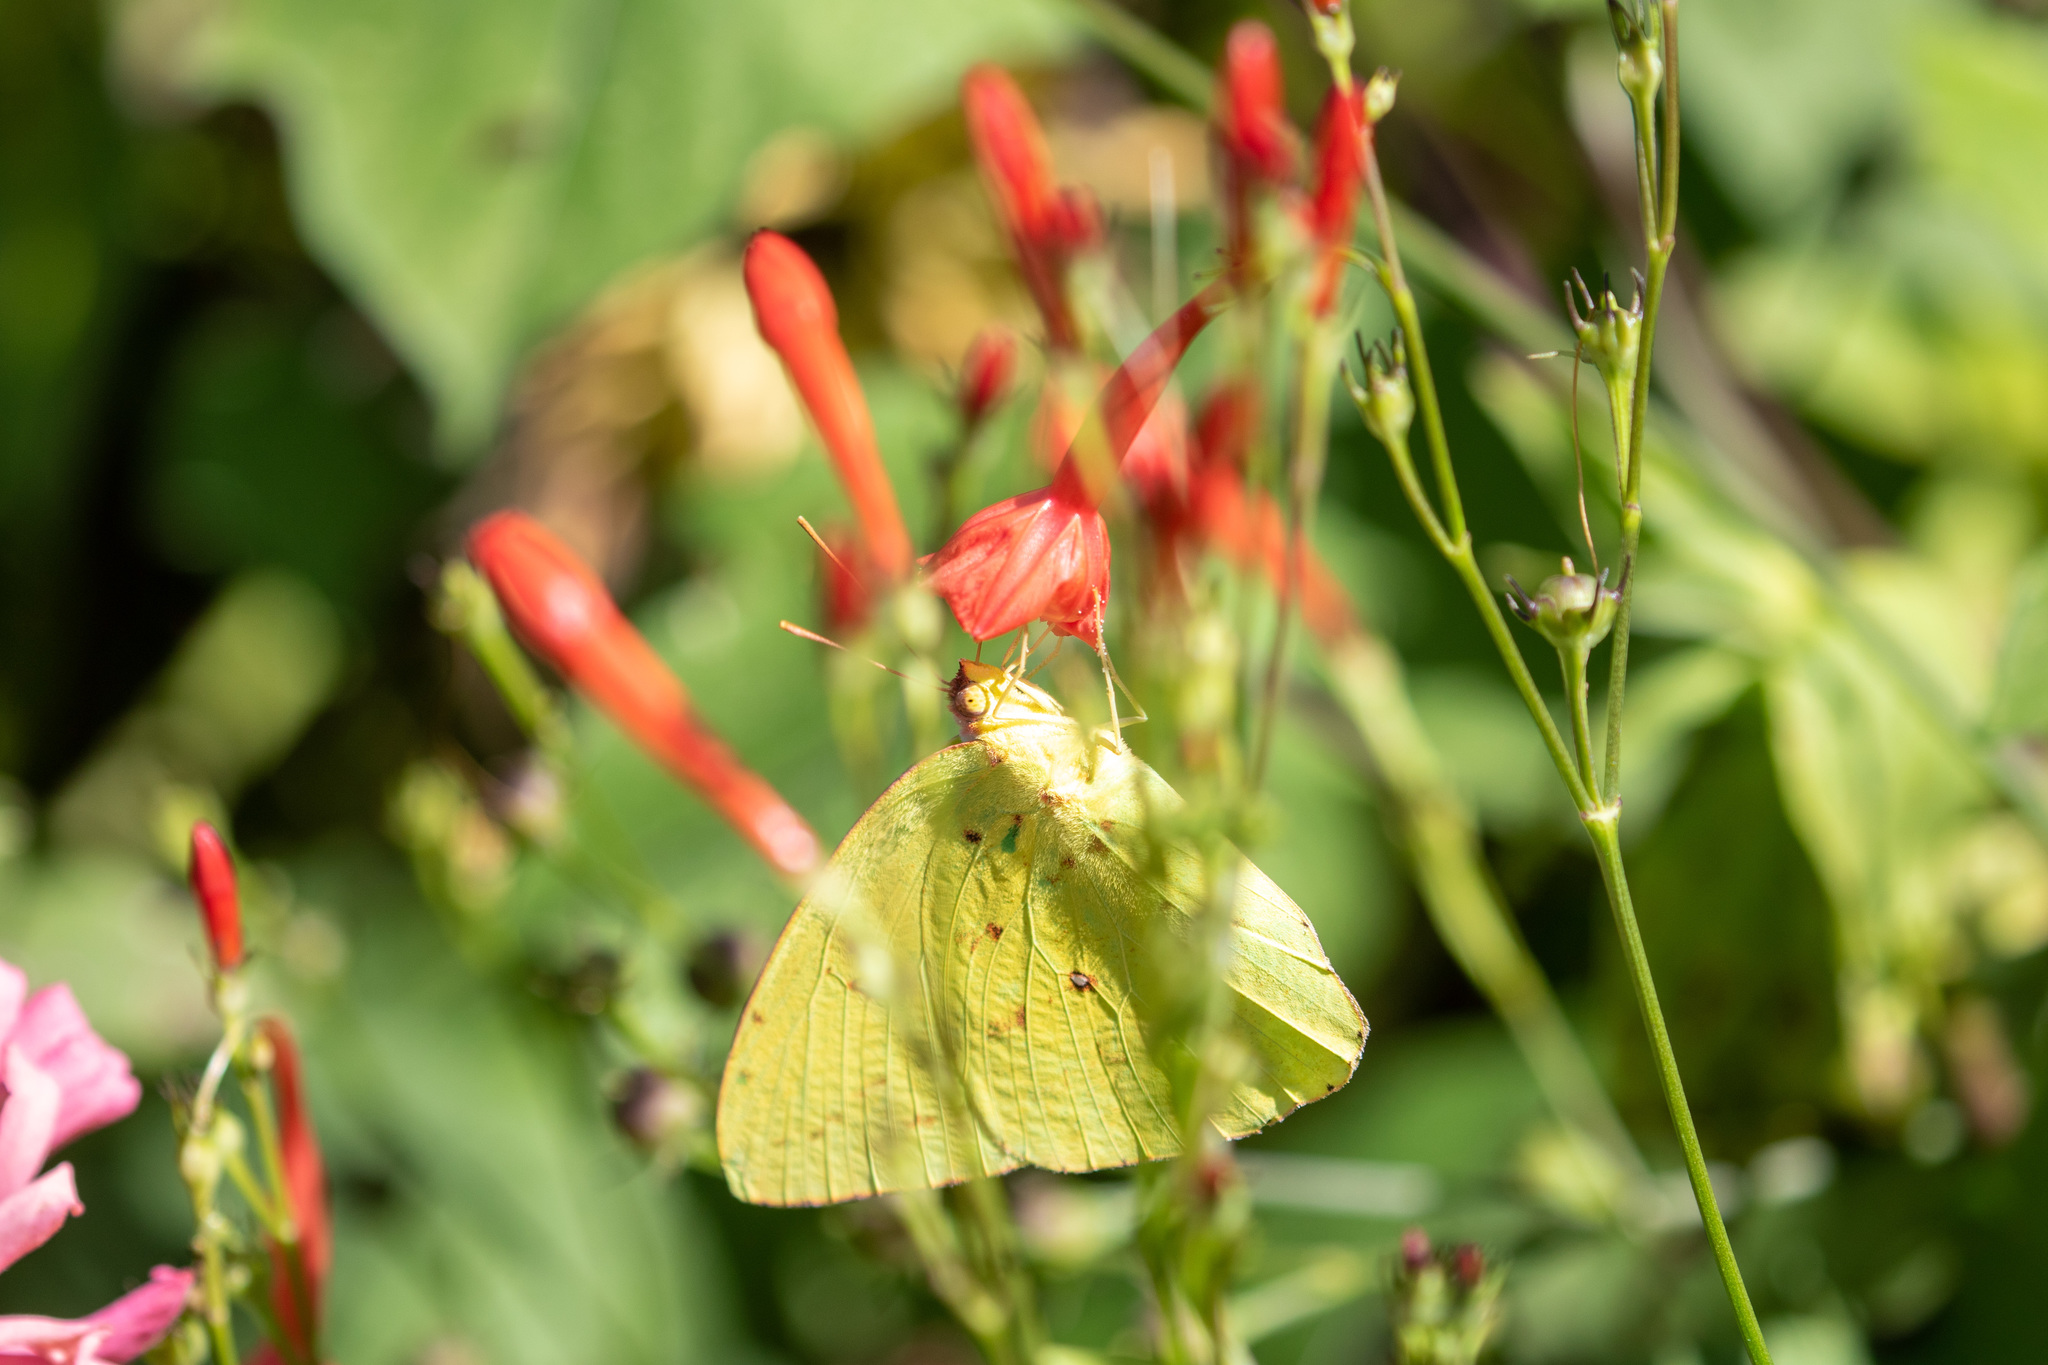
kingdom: Animalia
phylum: Arthropoda
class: Insecta
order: Lepidoptera
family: Pieridae
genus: Phoebis
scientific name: Phoebis sennae
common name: Cloudless sulphur
